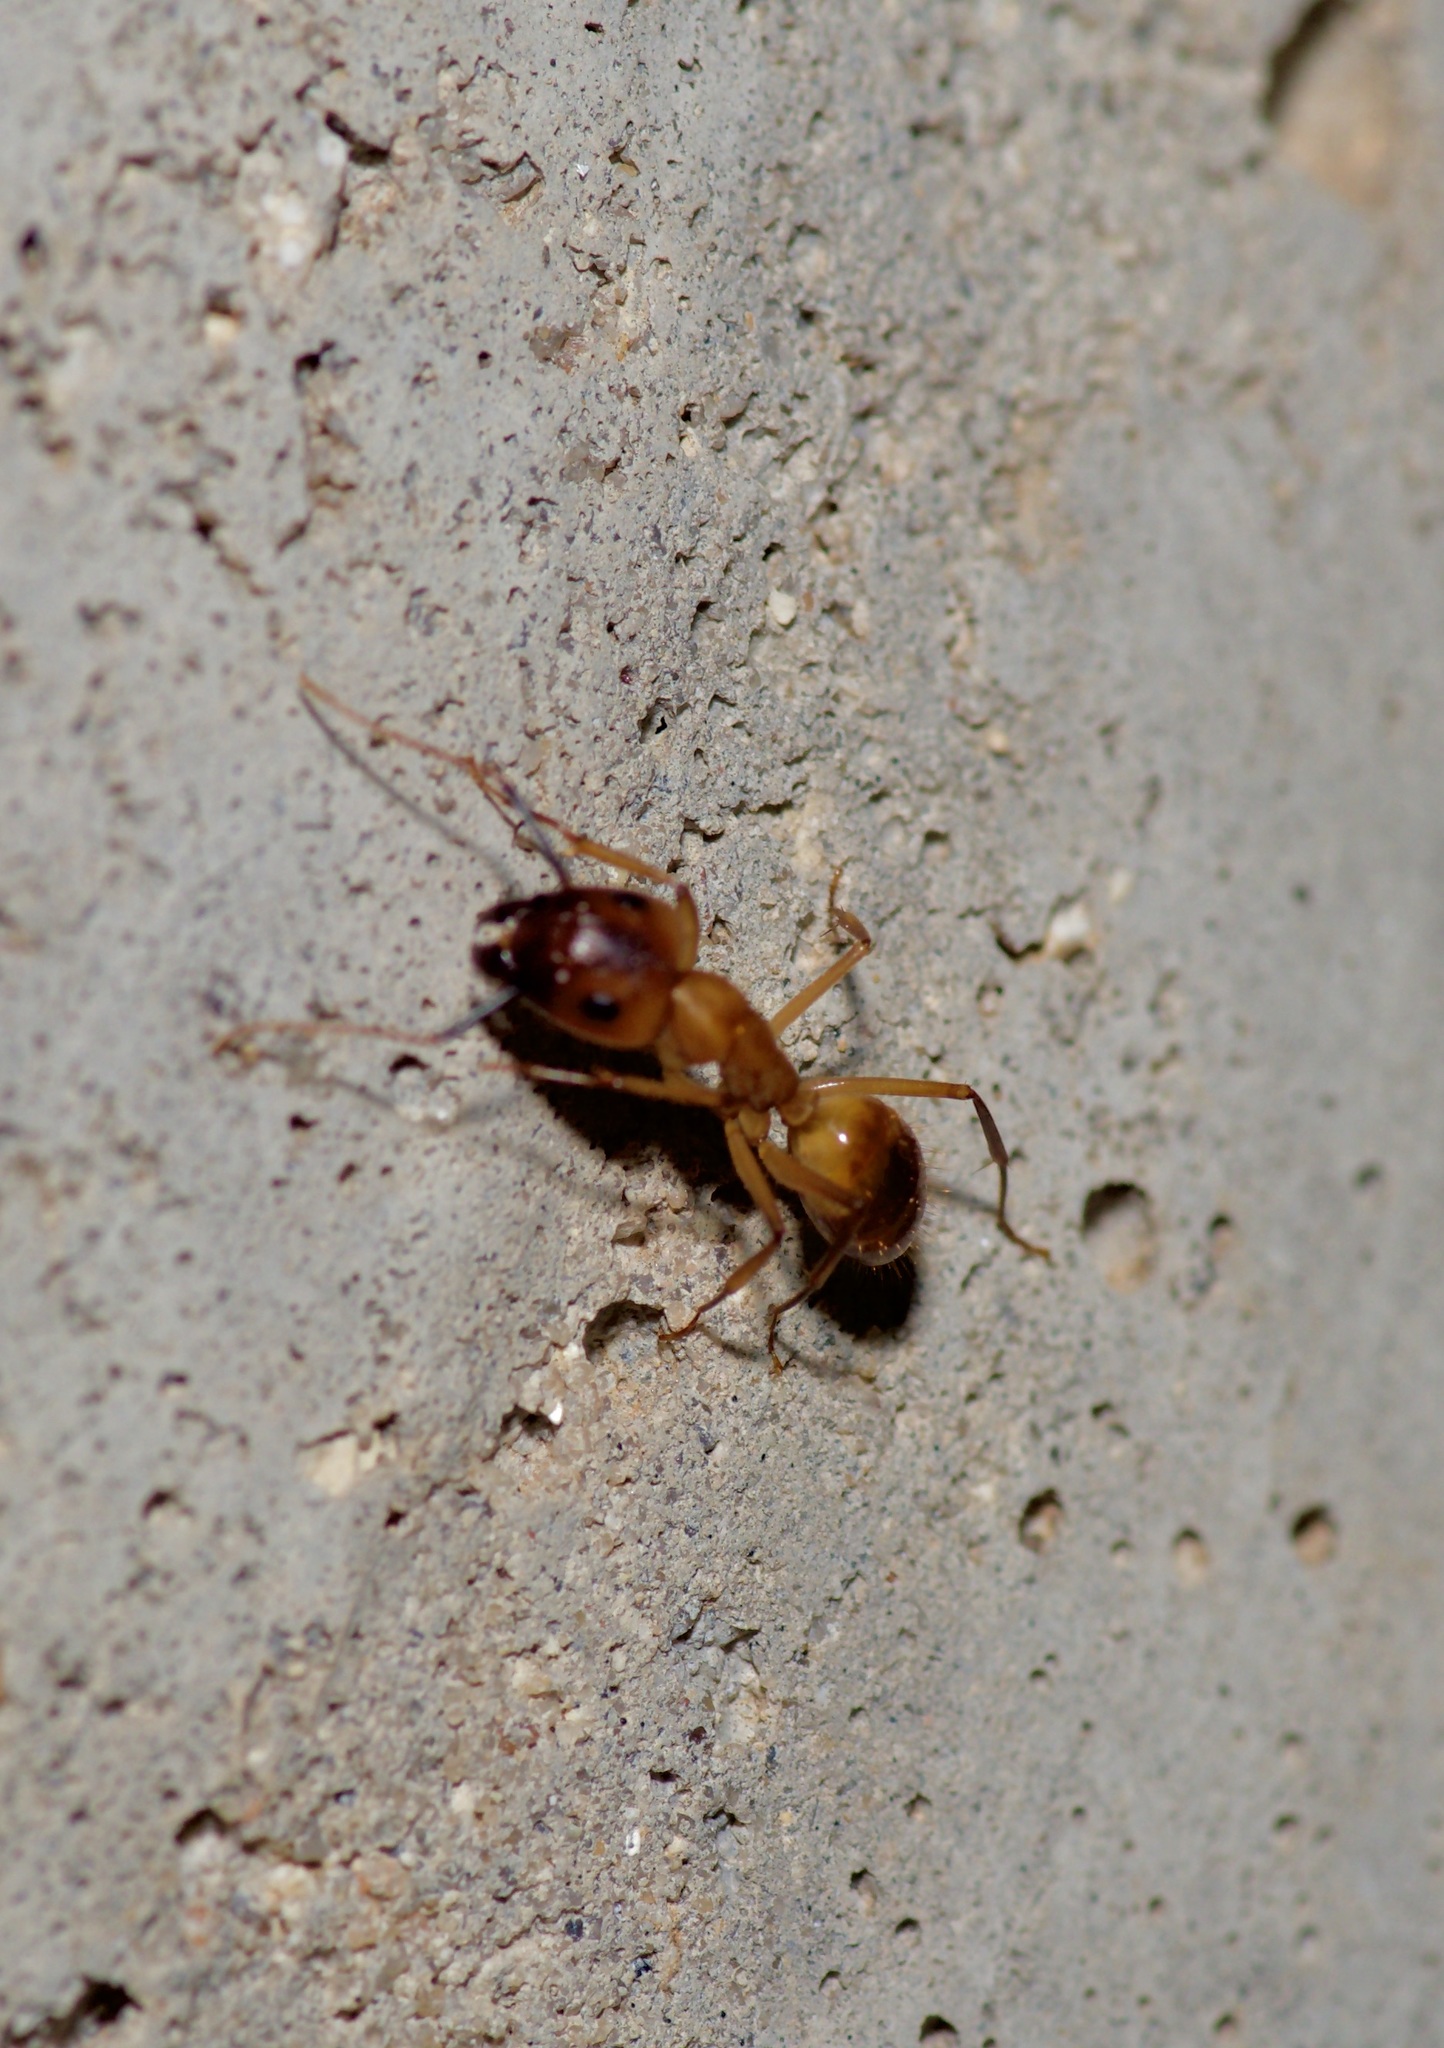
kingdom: Animalia
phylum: Arthropoda
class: Insecta
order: Hymenoptera
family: Formicidae
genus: Camponotus
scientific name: Camponotus festinatus
